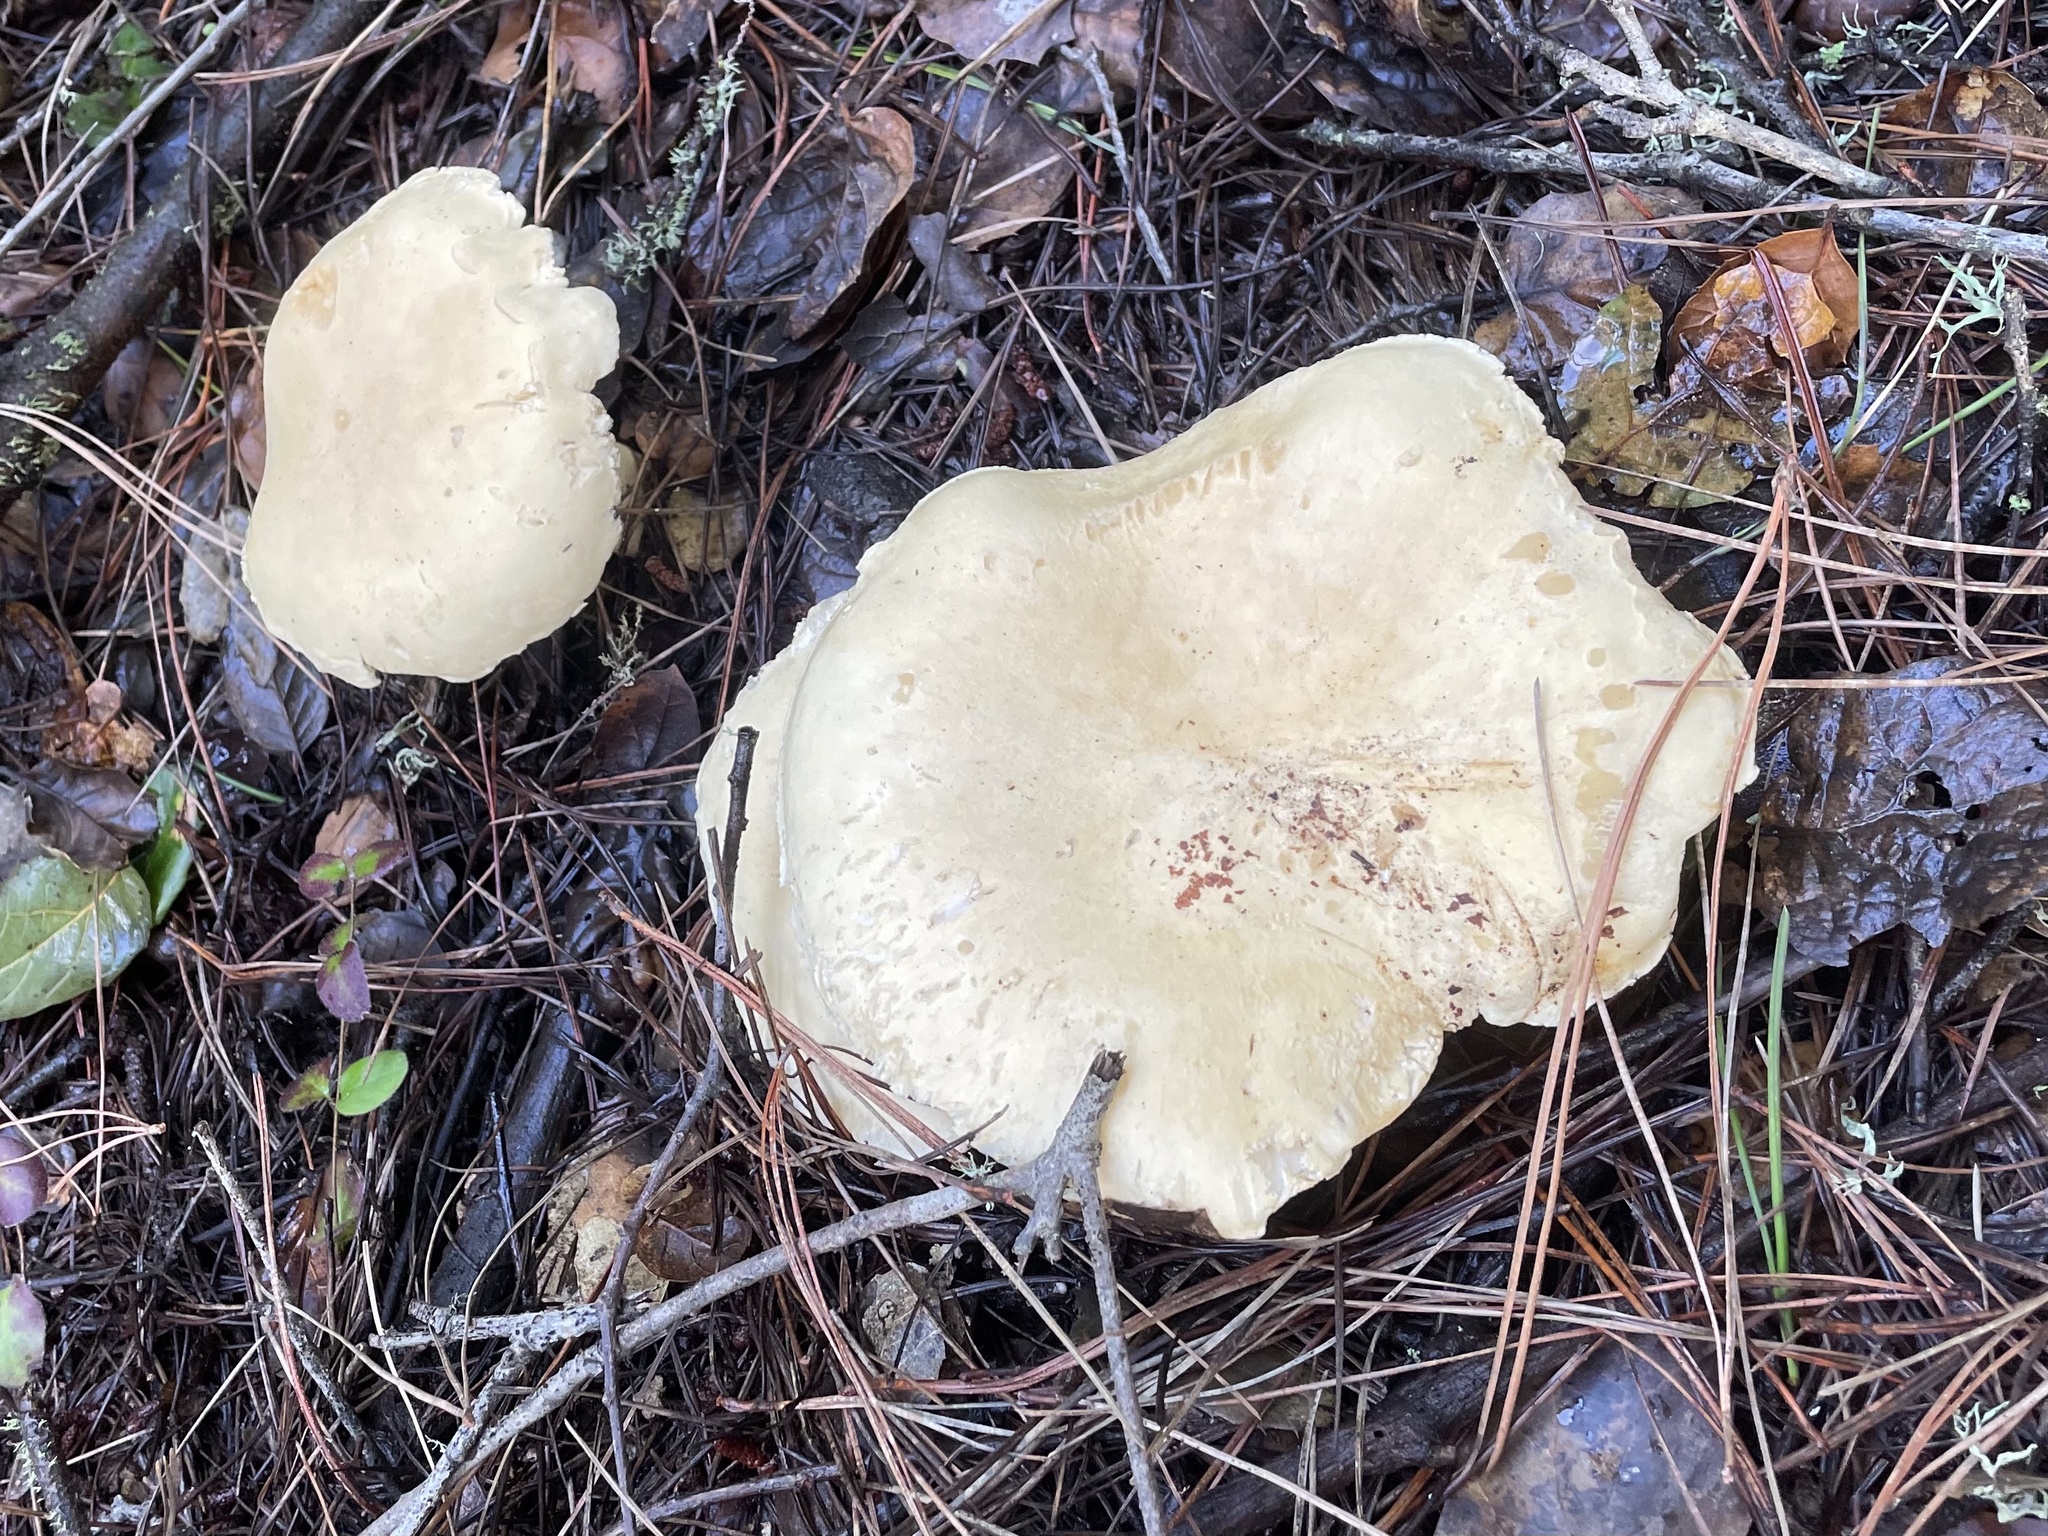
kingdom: Fungi
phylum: Basidiomycota
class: Agaricomycetes
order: Agaricales
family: Tricholomataceae
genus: Leucopaxillus
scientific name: Leucopaxillus albissimus
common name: Large white leucopax
